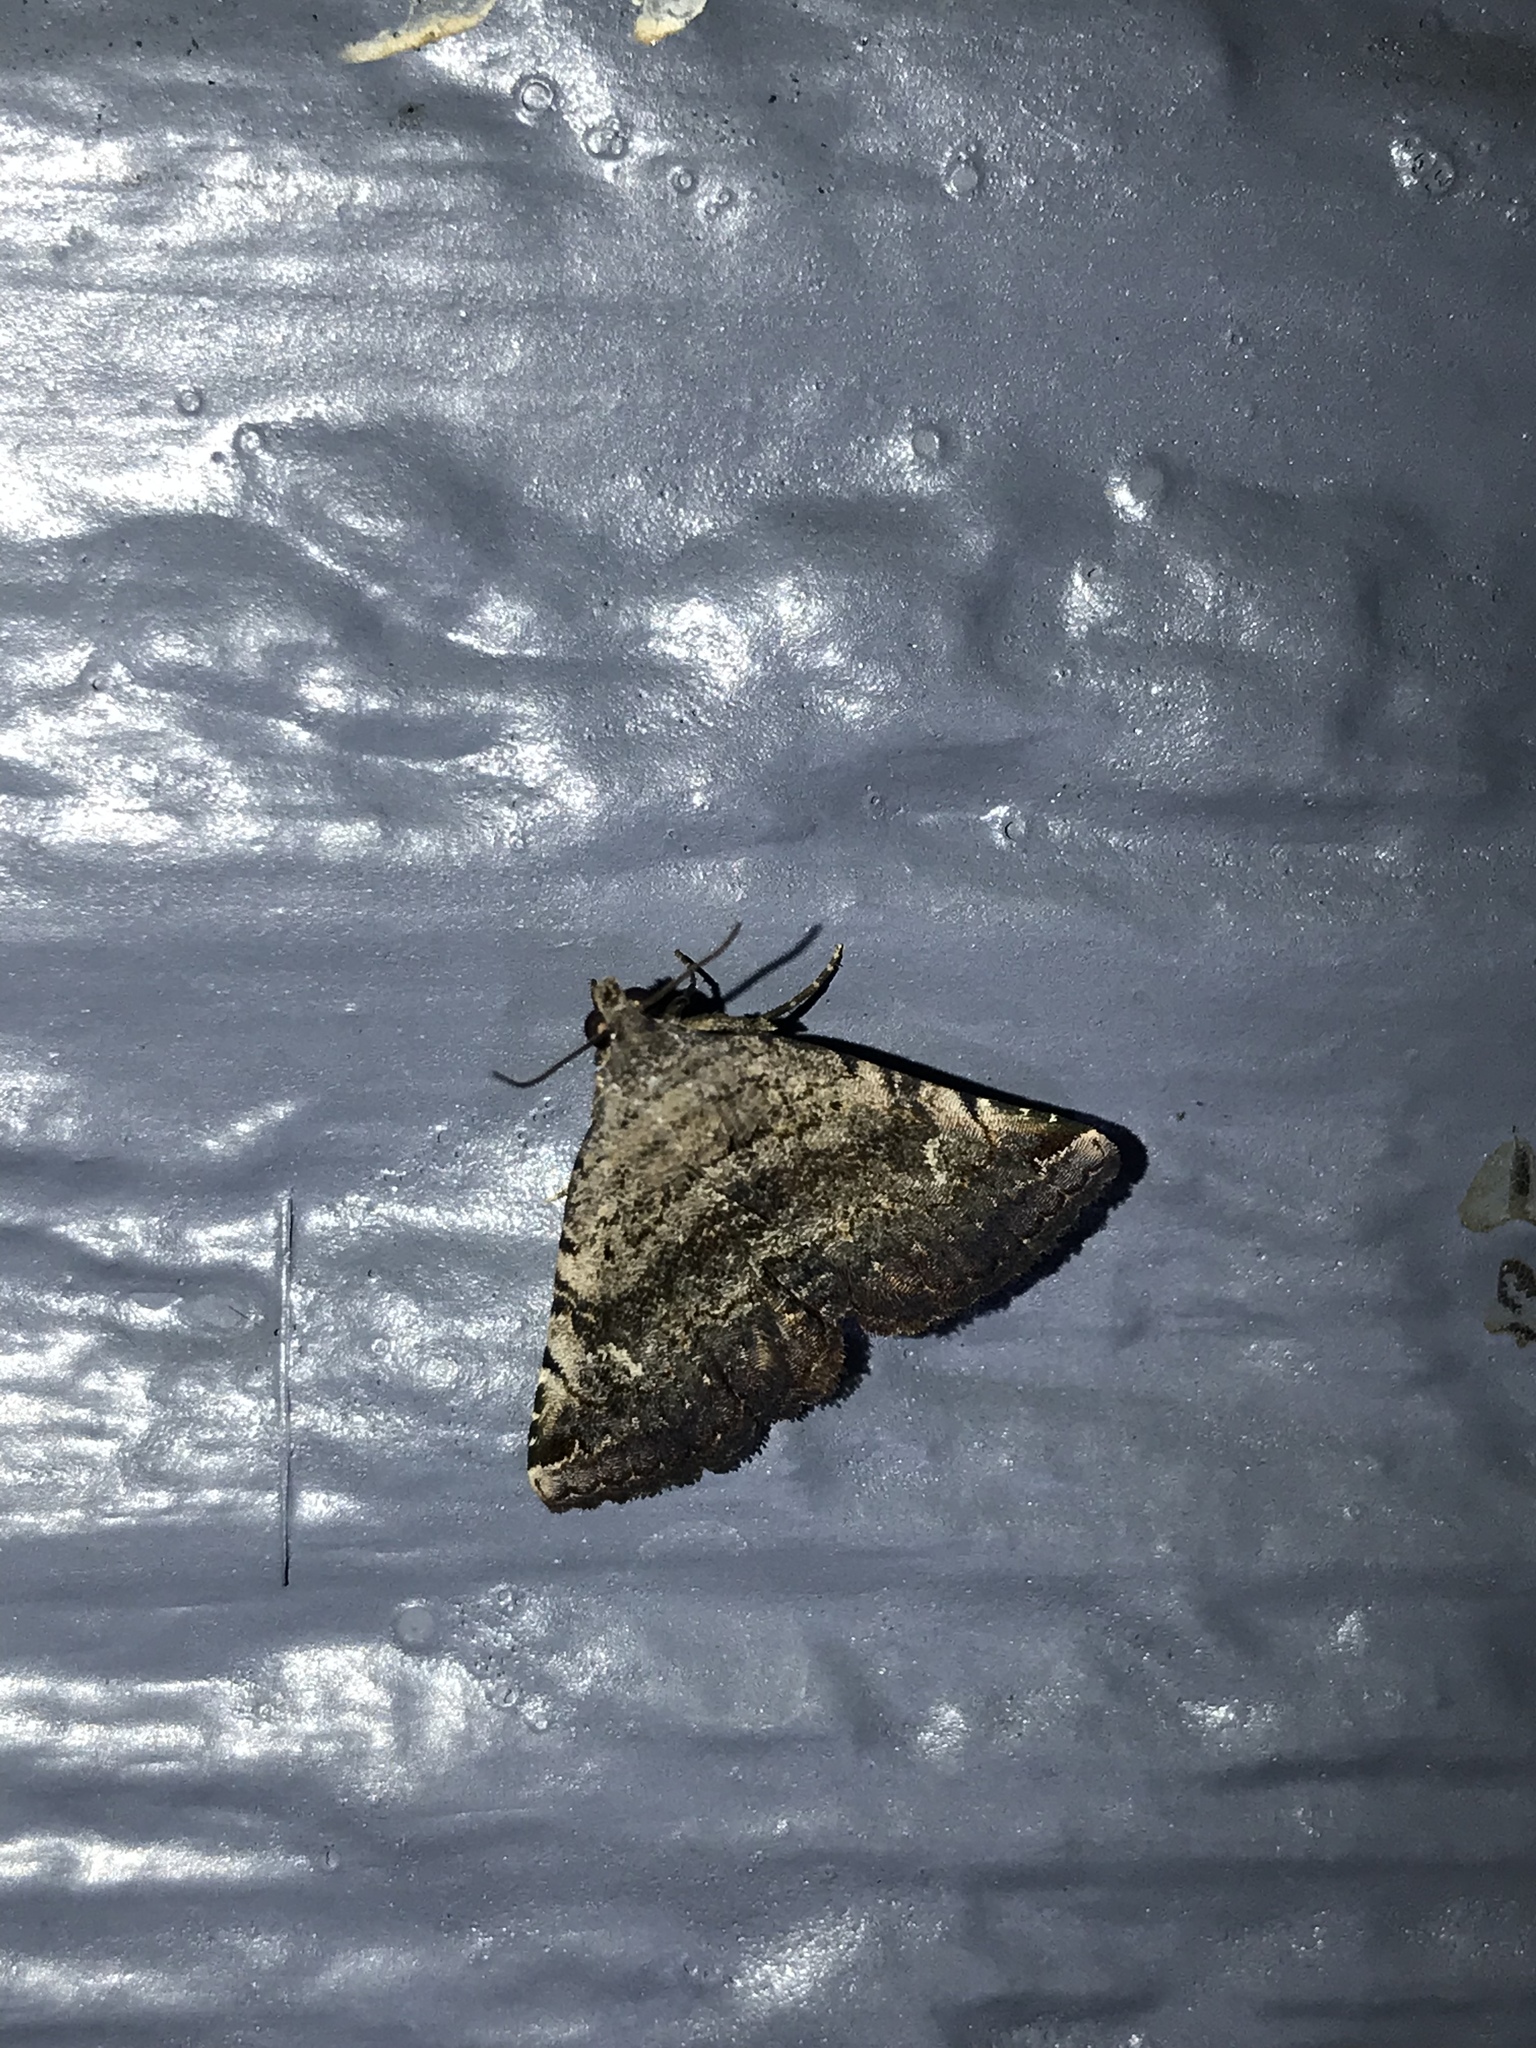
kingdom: Animalia
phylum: Arthropoda
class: Insecta
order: Lepidoptera
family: Erebidae
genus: Toxonprucha
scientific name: Toxonprucha crudelis
